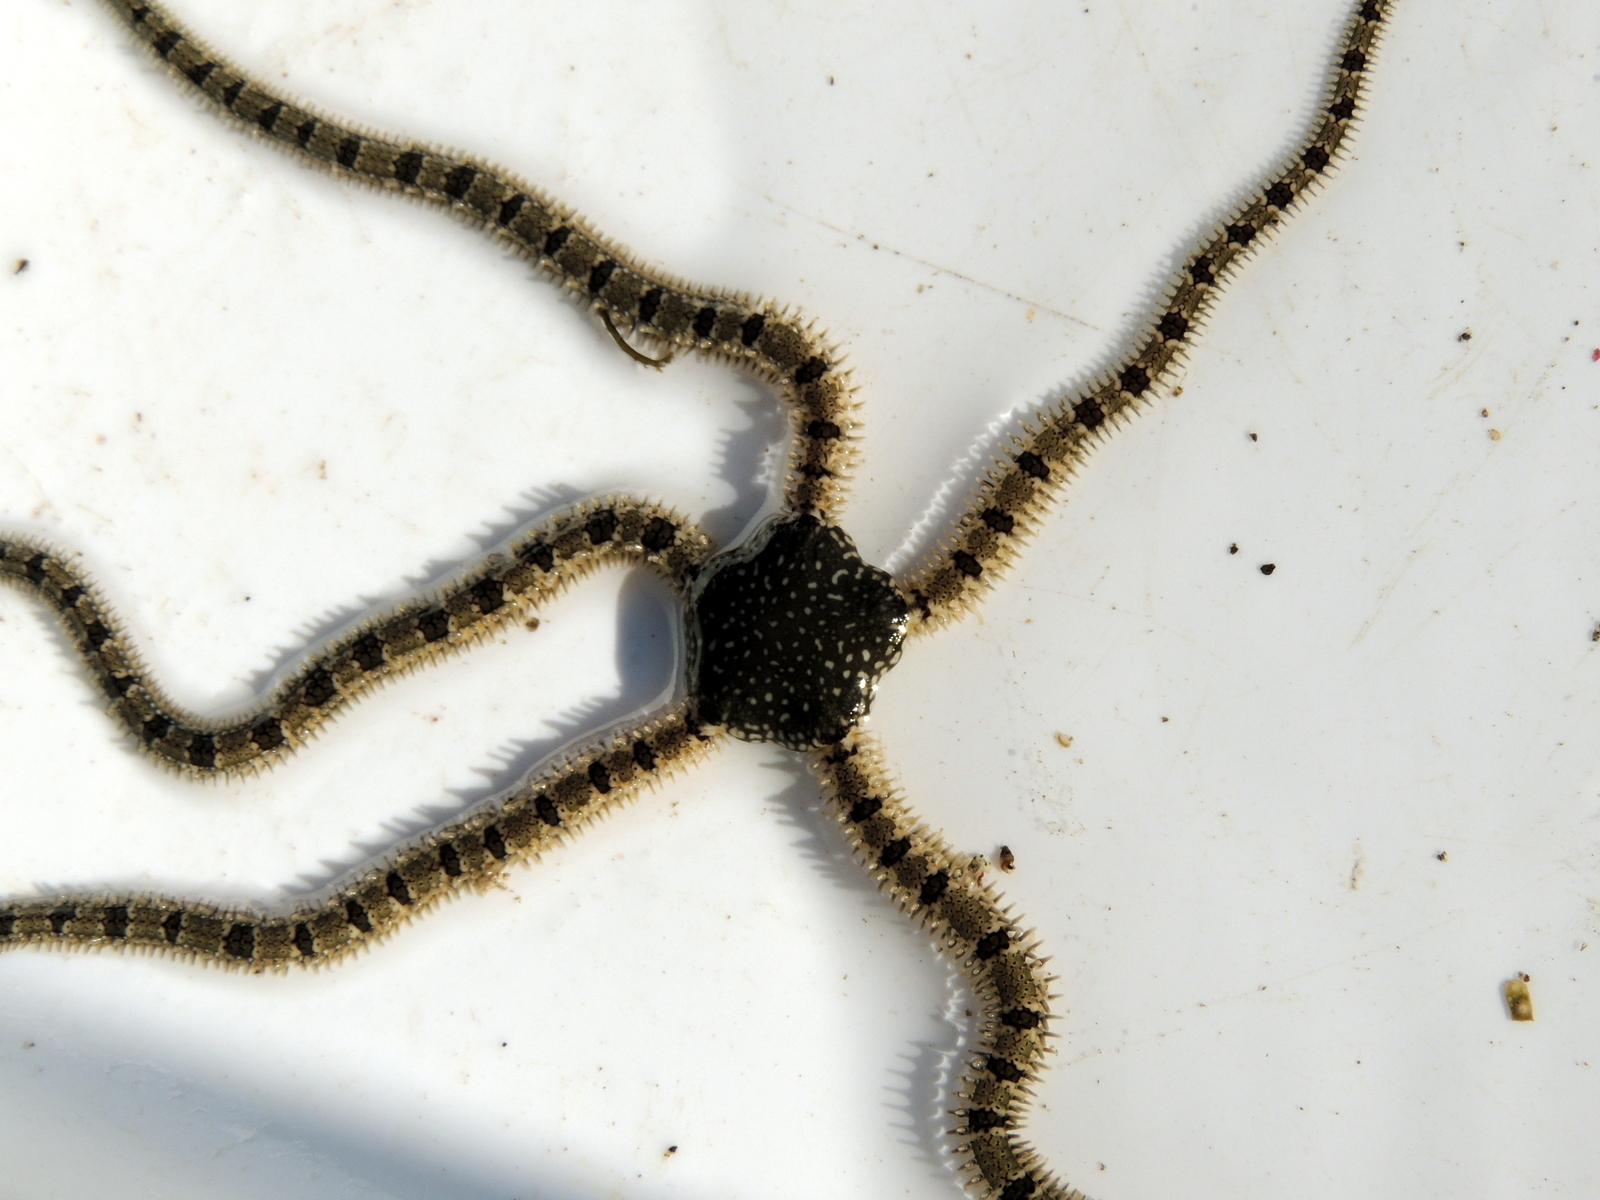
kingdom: Animalia
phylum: Echinodermata
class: Ophiuroidea
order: Amphilepidida
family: Ophionereididae
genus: Ophionereis
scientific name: Ophionereis annulata
